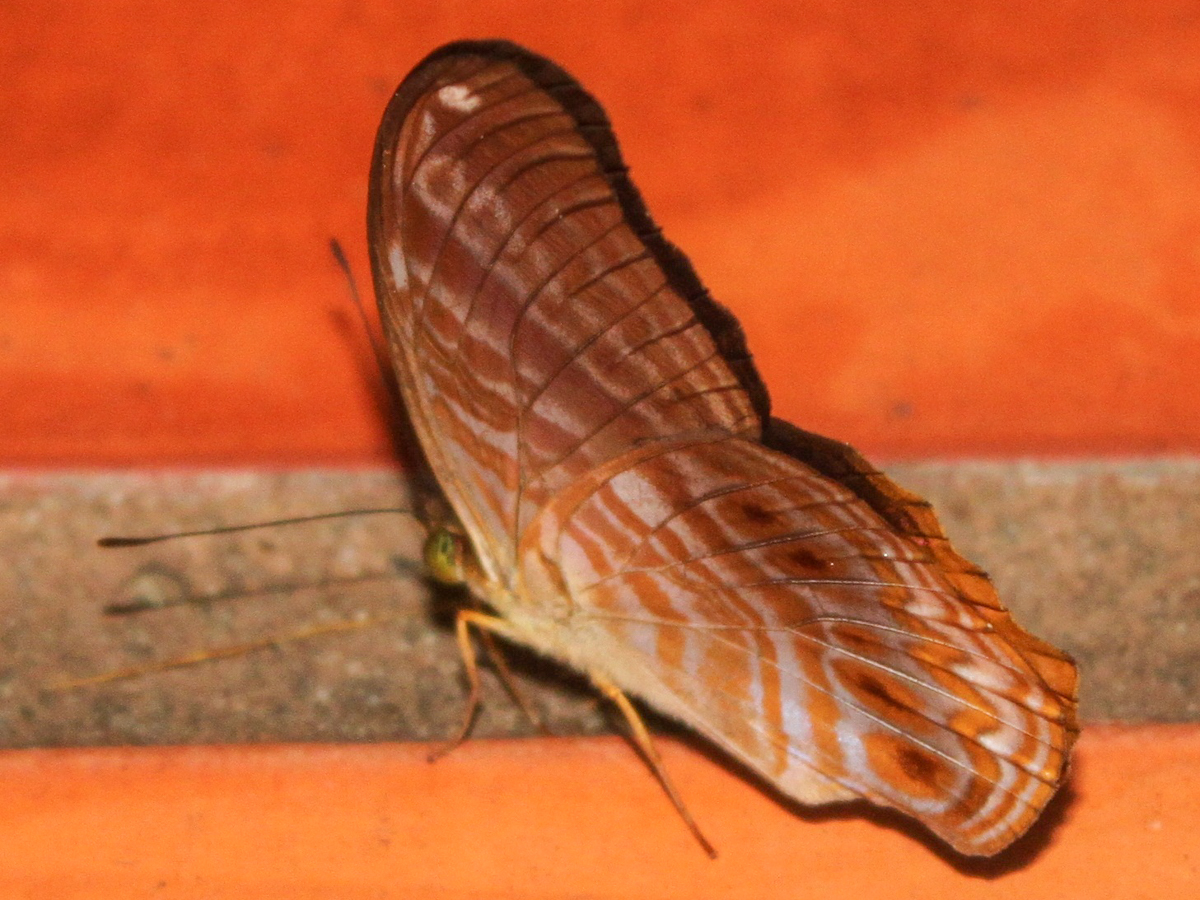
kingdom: Animalia
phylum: Arthropoda
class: Insecta
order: Lepidoptera
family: Nymphalidae
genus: Terinos
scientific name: Terinos terpander
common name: Royal assyrian
